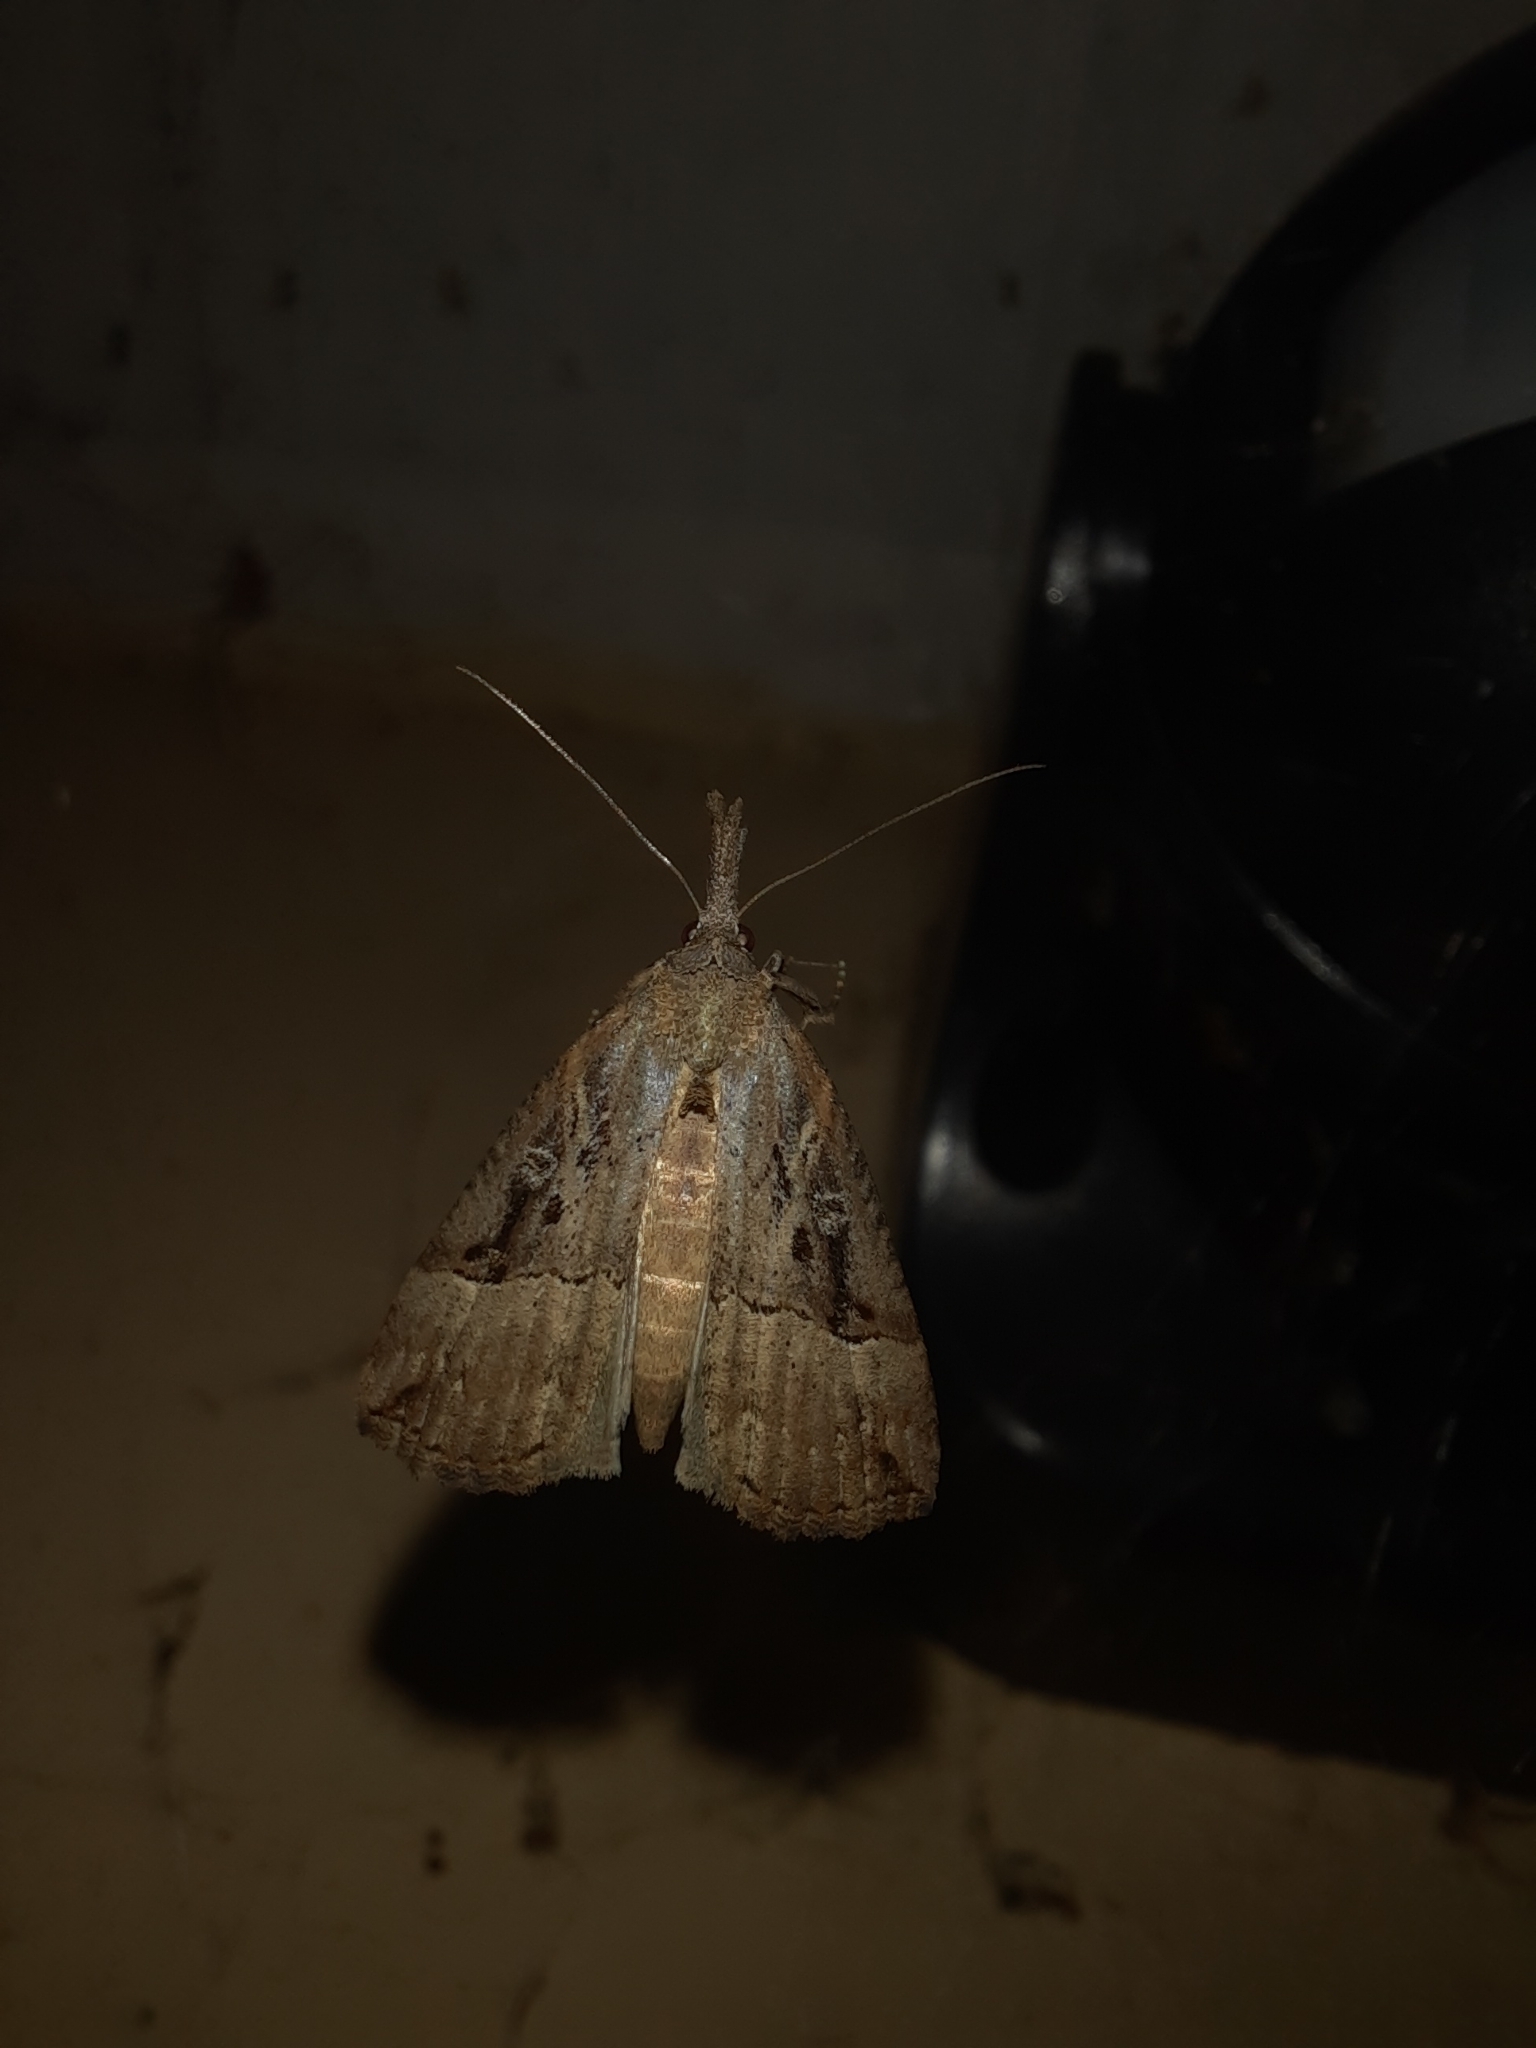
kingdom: Animalia
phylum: Arthropoda
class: Insecta
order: Lepidoptera
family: Erebidae
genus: Hypena
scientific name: Hypena rostralis
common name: Buttoned snout
